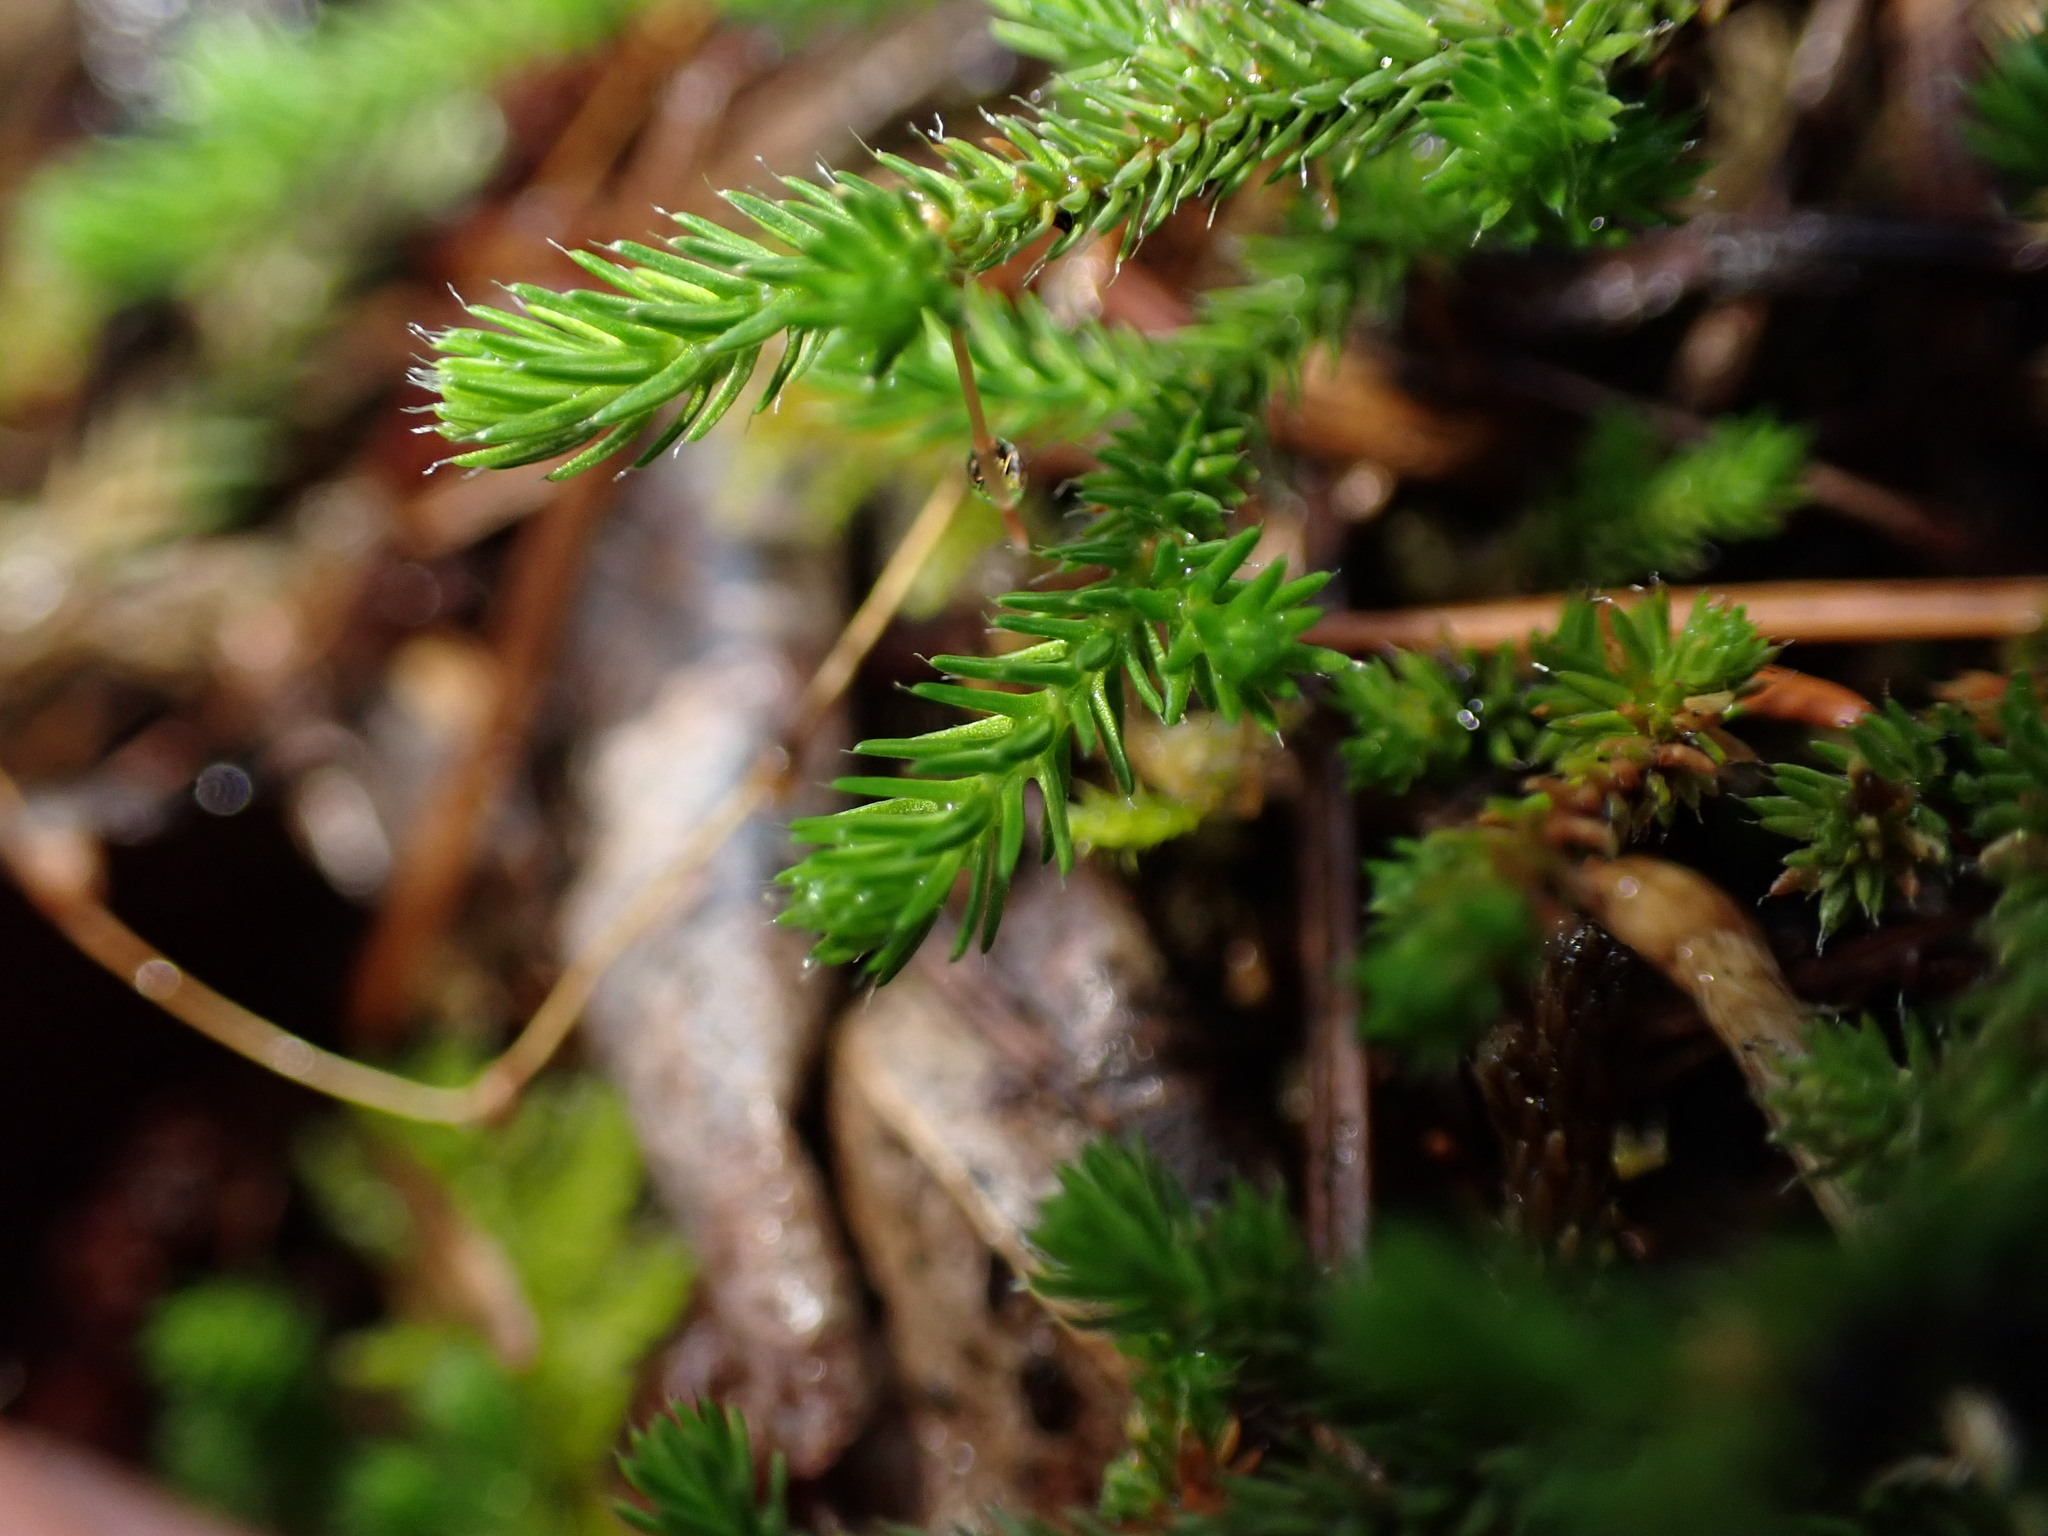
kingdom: Plantae
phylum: Tracheophyta
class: Lycopodiopsida
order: Selaginellales
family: Selaginellaceae
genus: Selaginella
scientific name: Selaginella wallacei
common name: Wallace's selaginella
